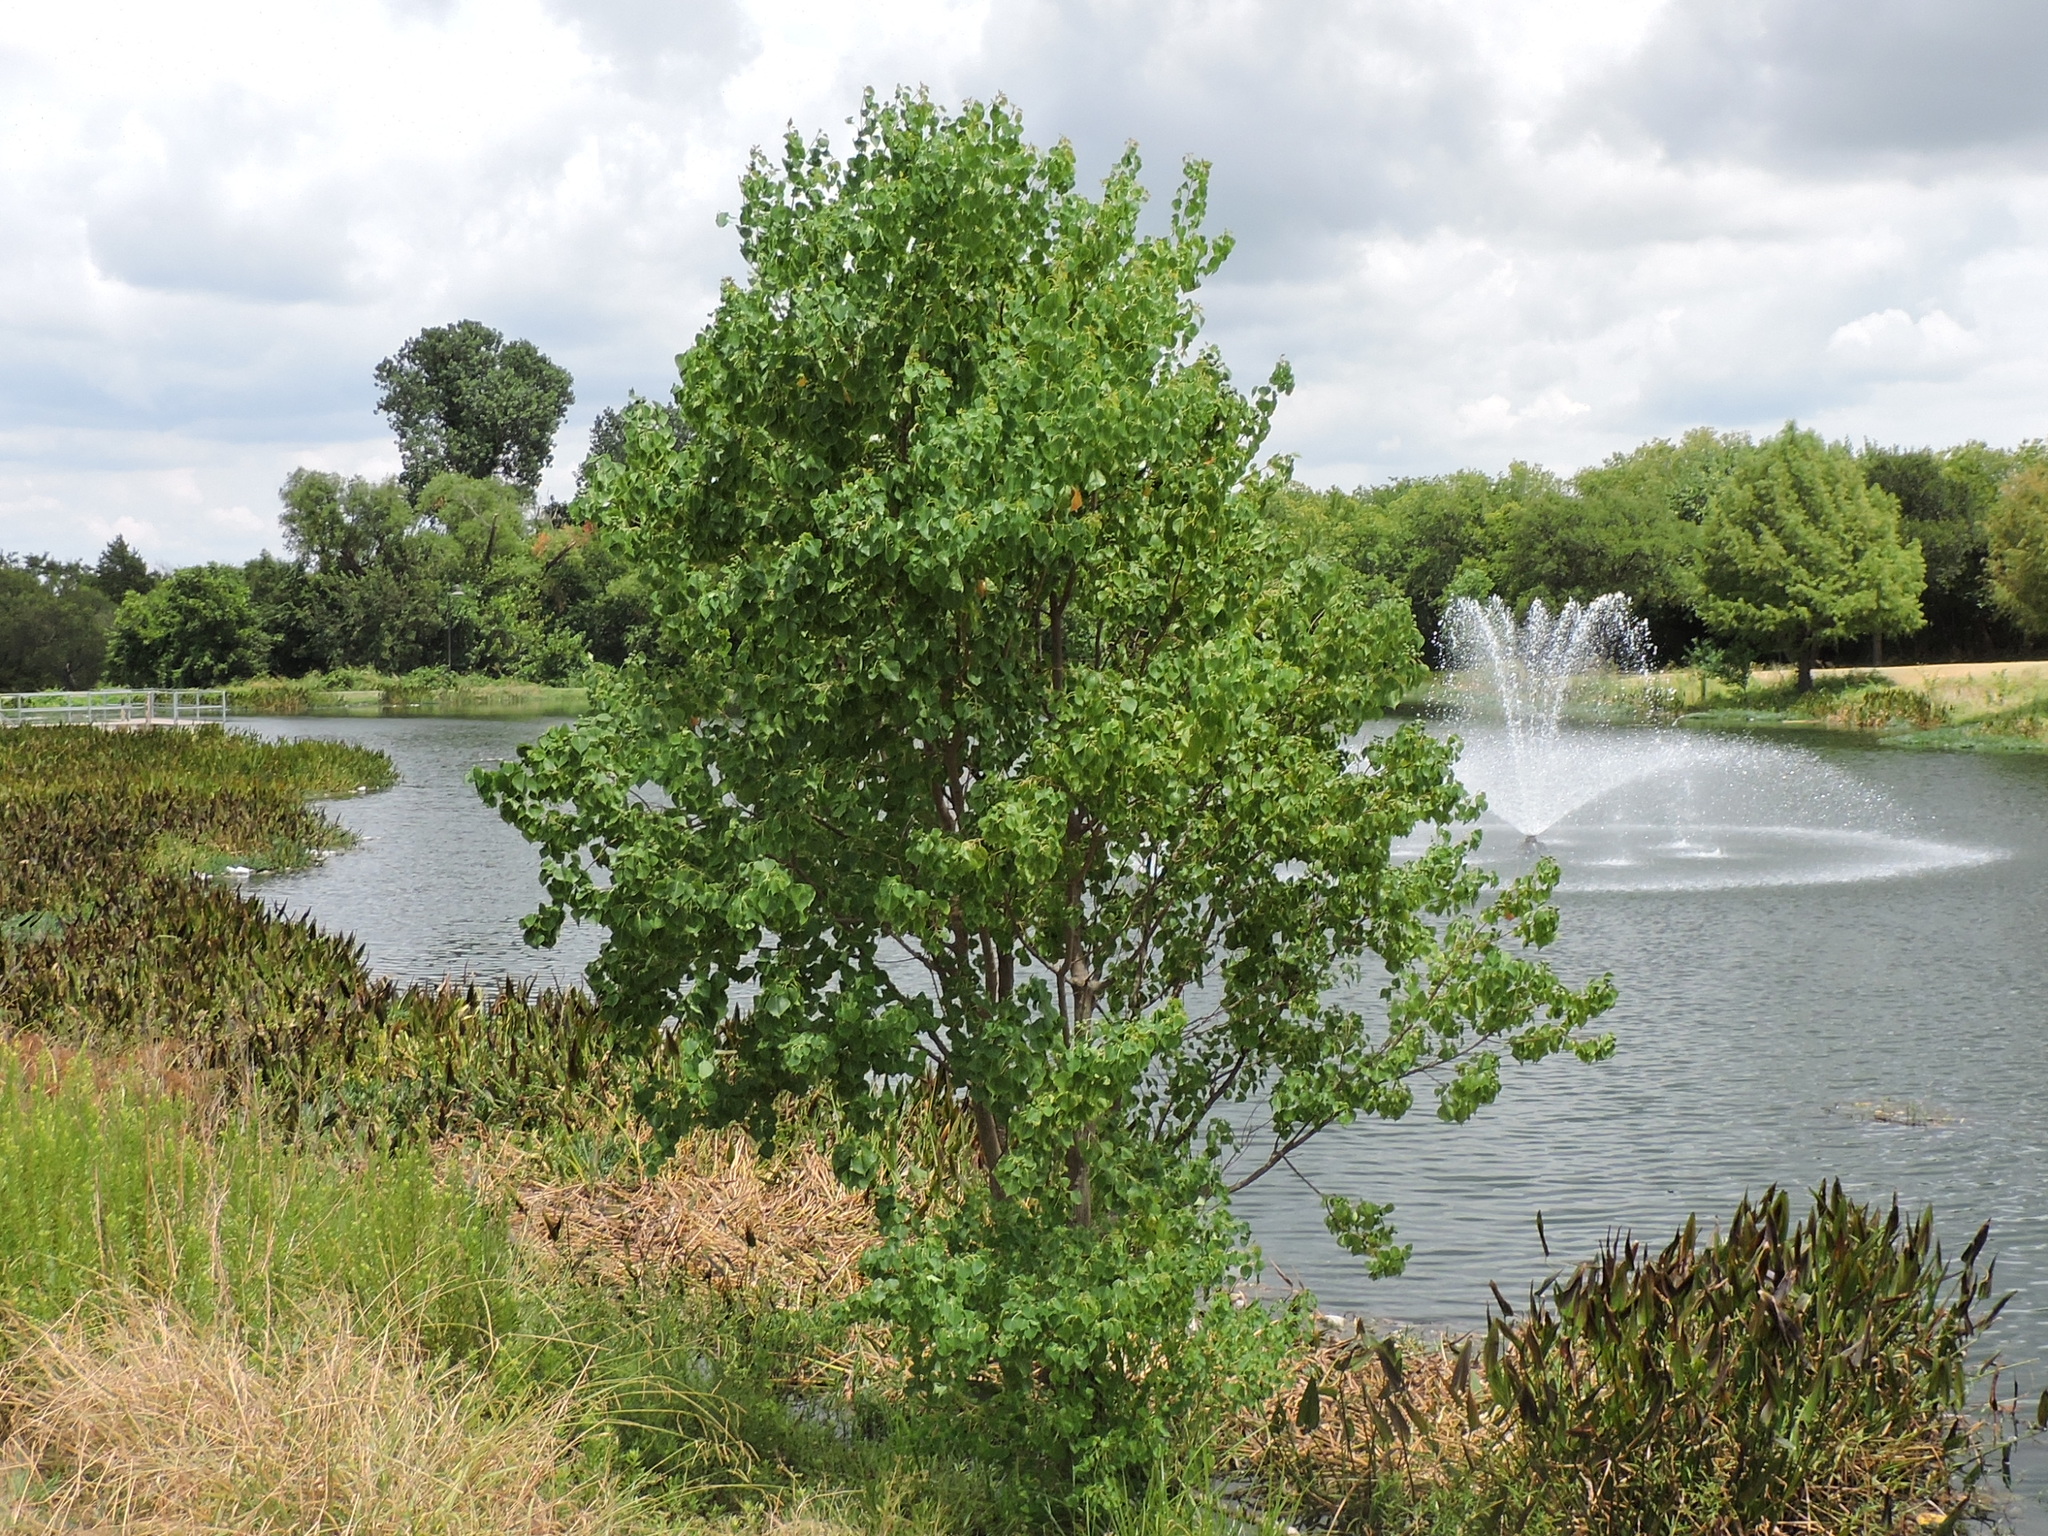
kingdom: Plantae
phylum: Tracheophyta
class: Magnoliopsida
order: Malpighiales
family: Euphorbiaceae
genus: Triadica
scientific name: Triadica sebifera
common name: Chinese tallow
